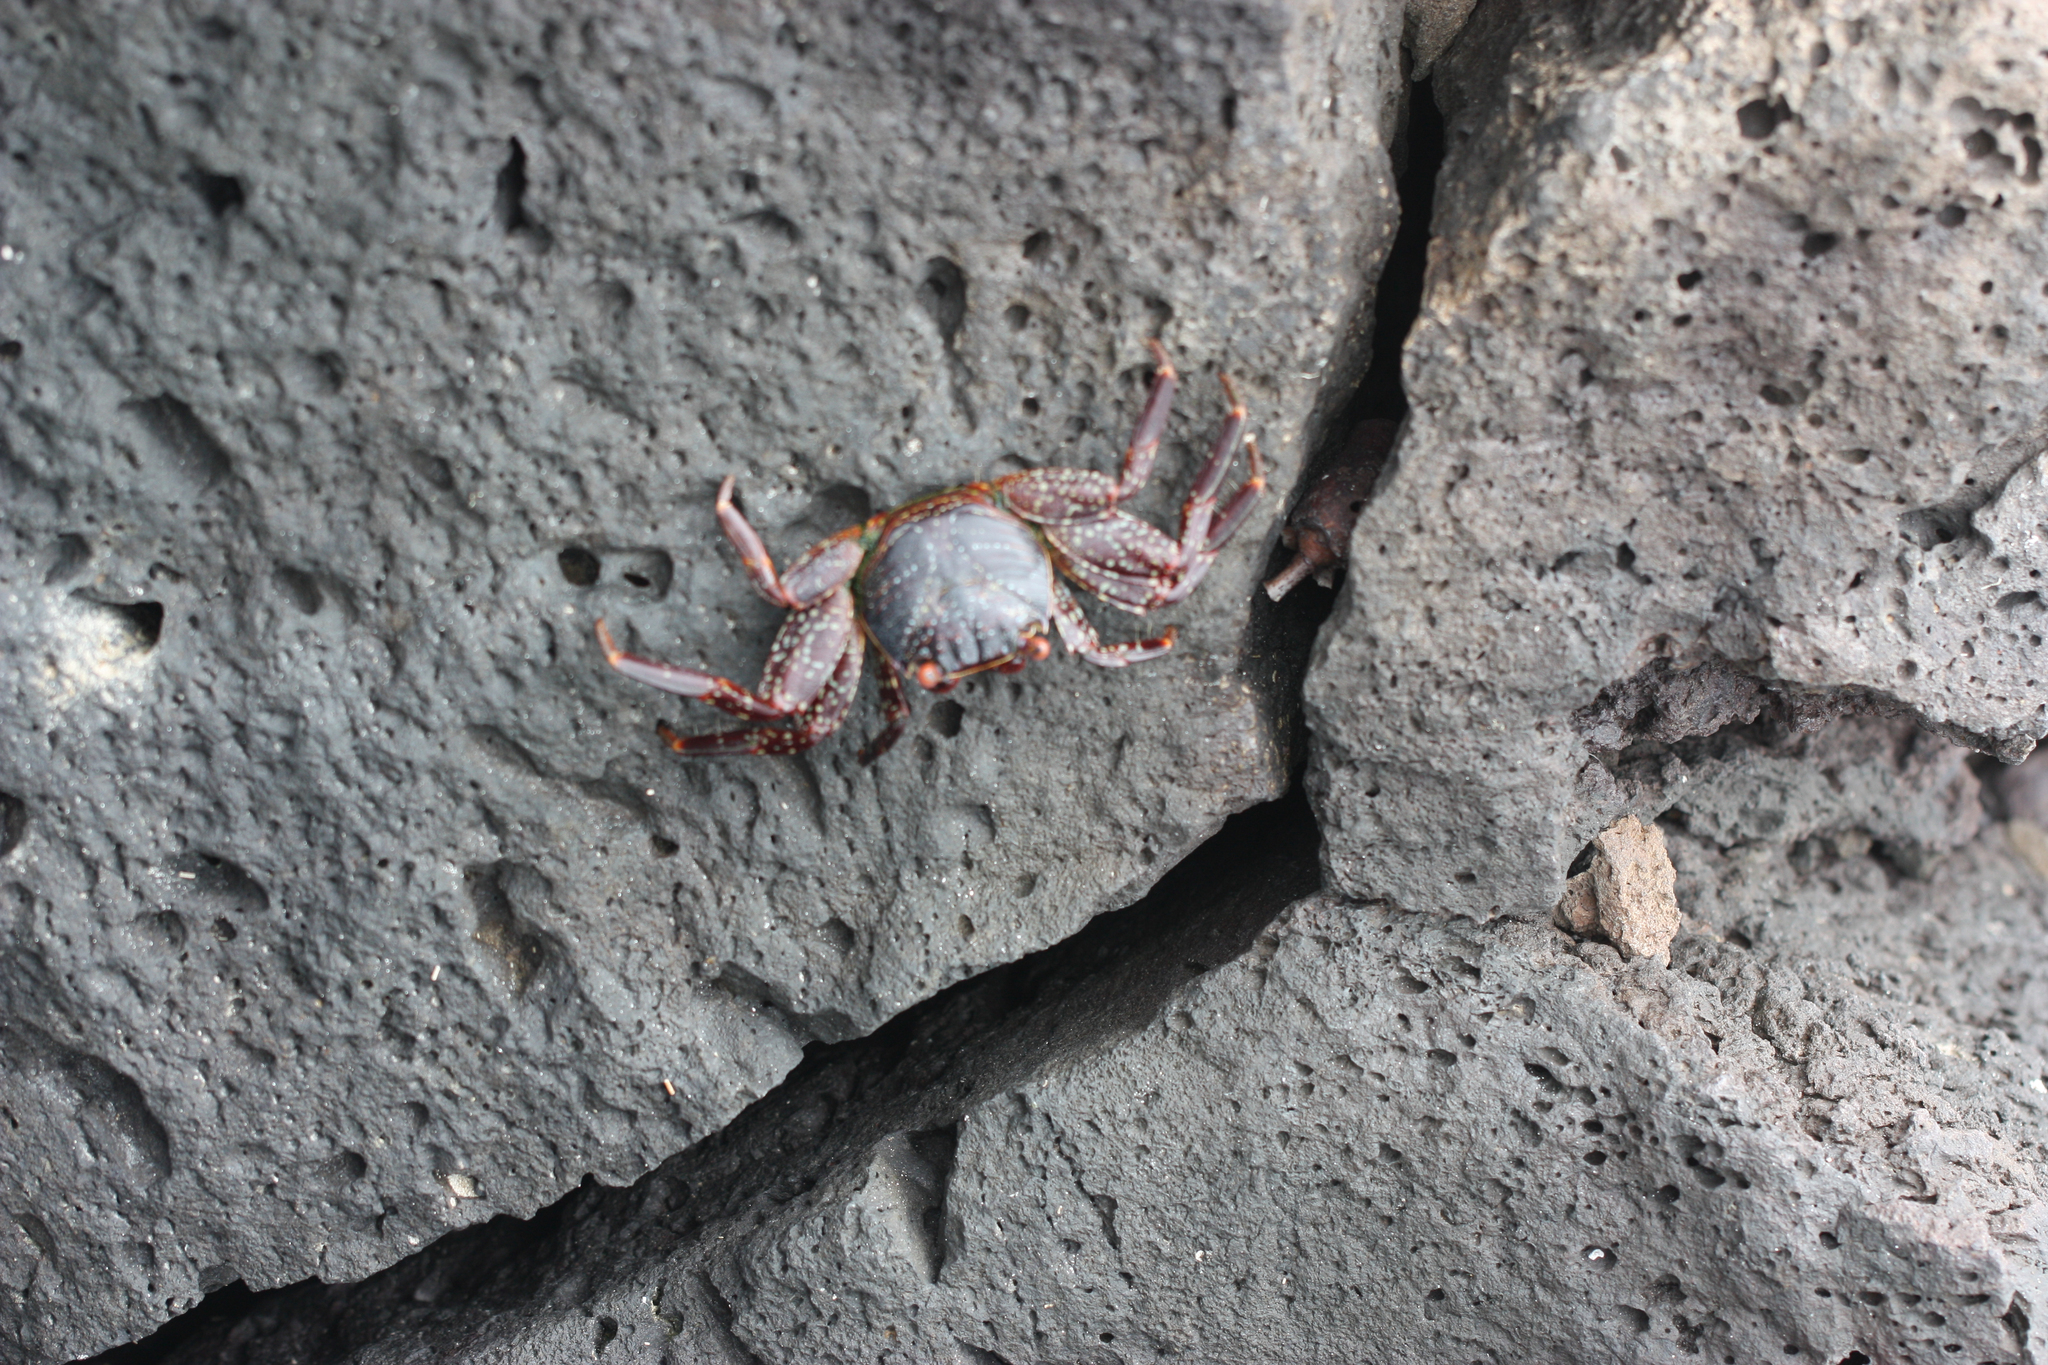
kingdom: Animalia
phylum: Arthropoda
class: Malacostraca
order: Decapoda
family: Grapsidae
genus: Grapsus
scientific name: Grapsus grapsus
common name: Sally lightfoot
